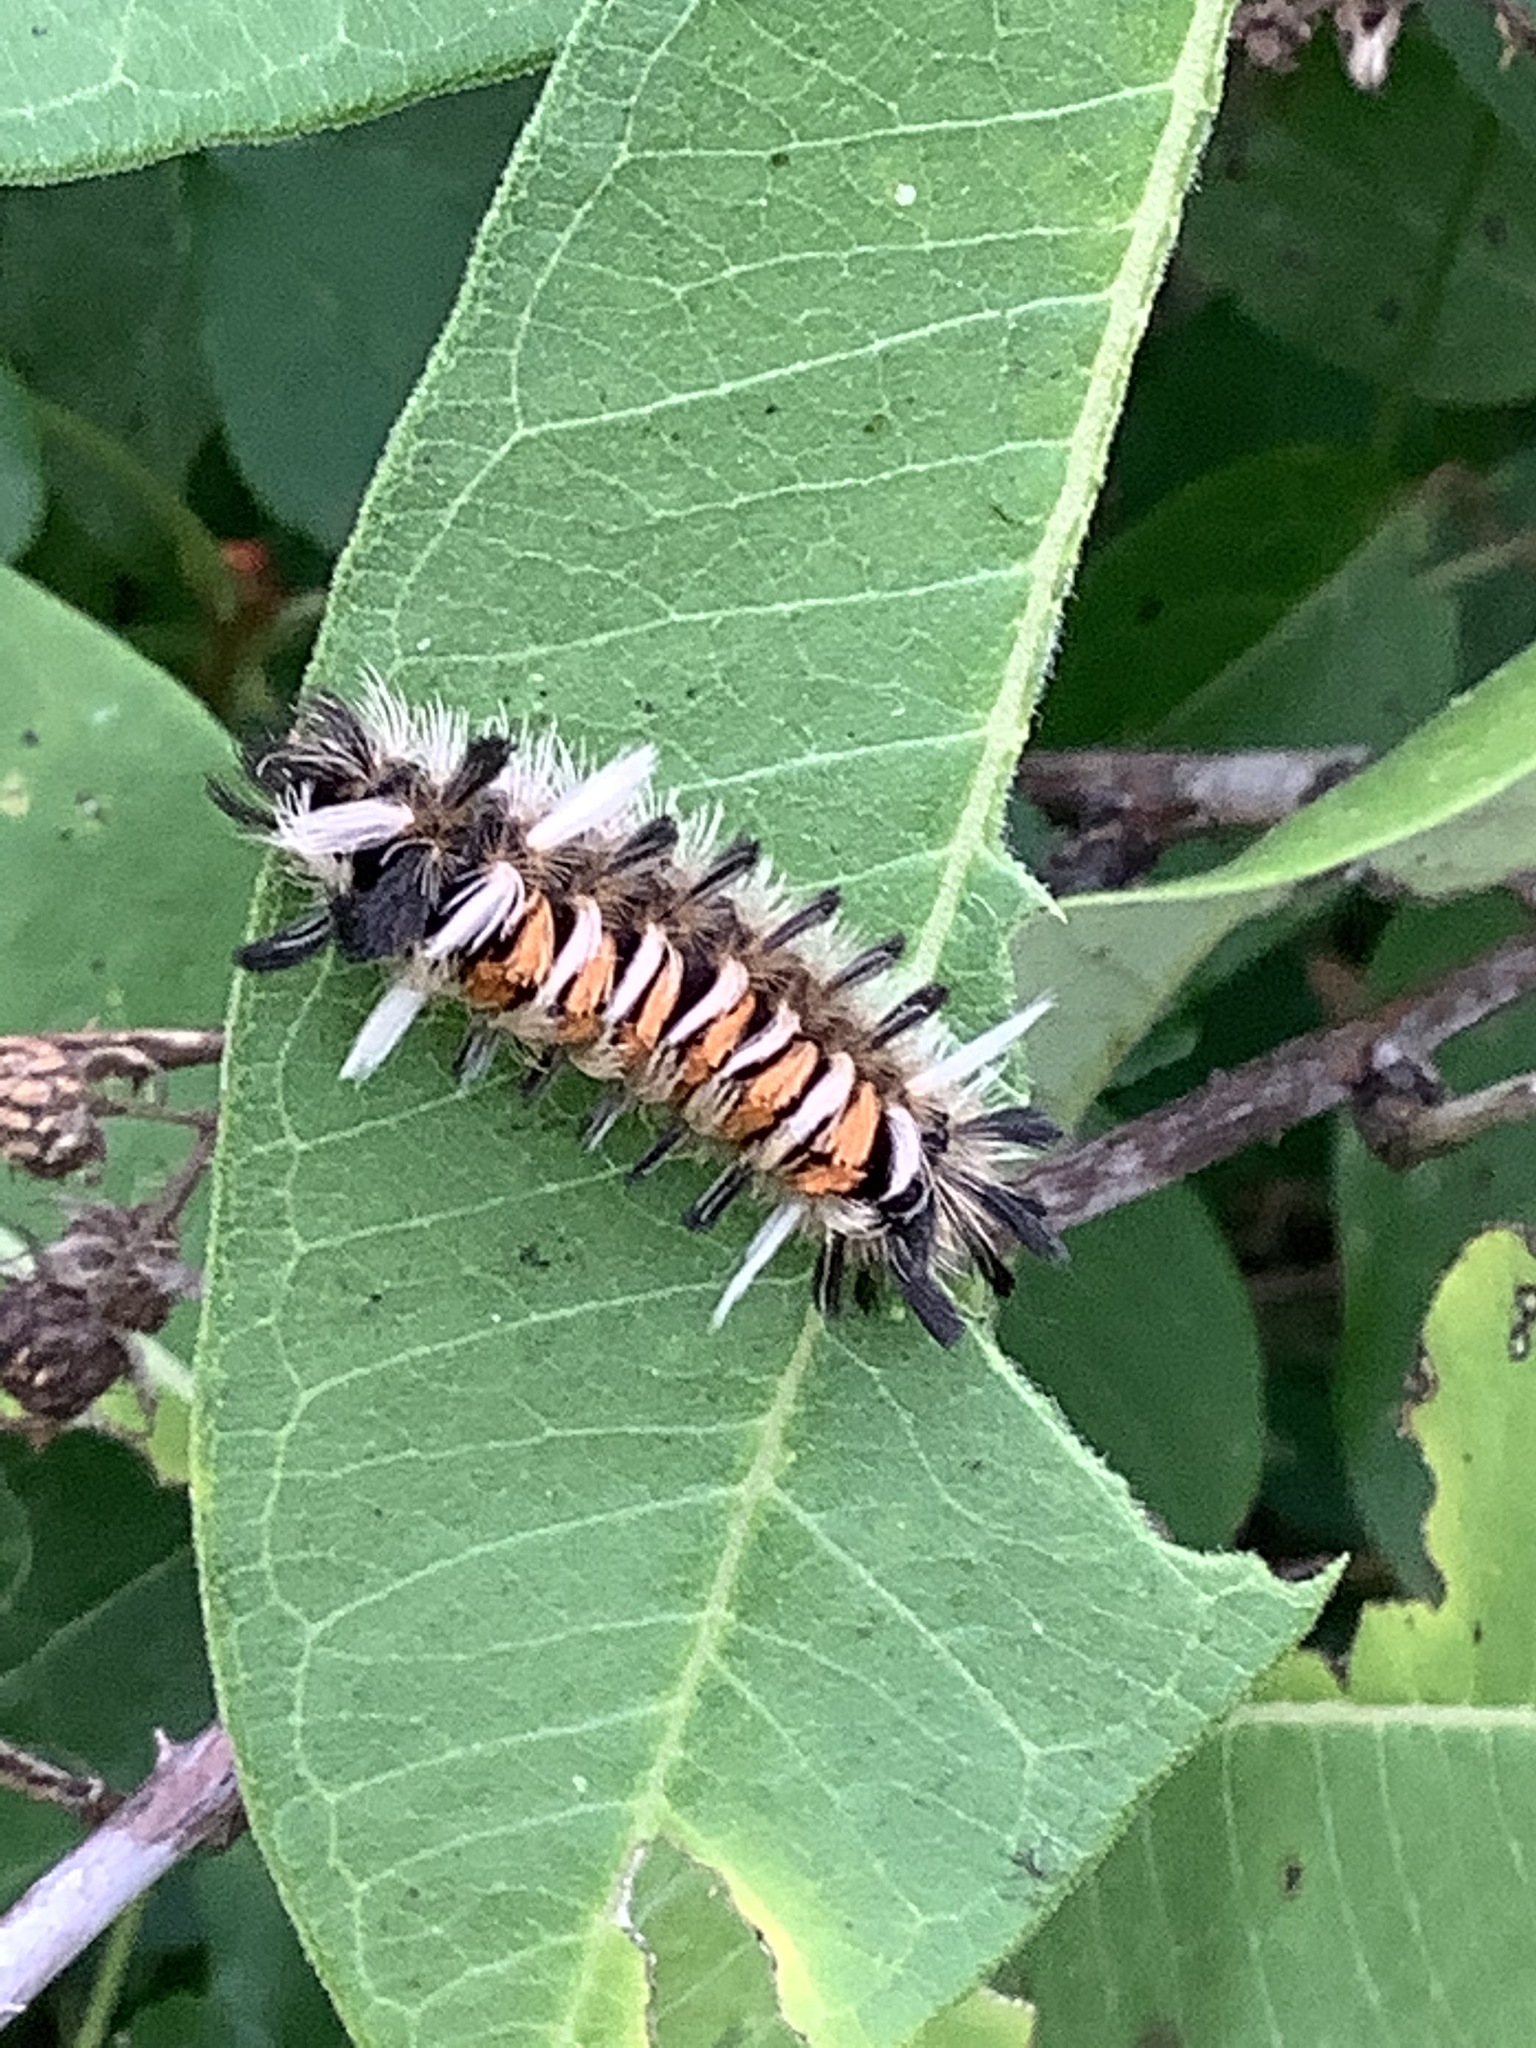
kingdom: Animalia
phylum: Arthropoda
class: Insecta
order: Lepidoptera
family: Erebidae
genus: Euchaetes
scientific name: Euchaetes egle
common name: Milkweed tussock moth
